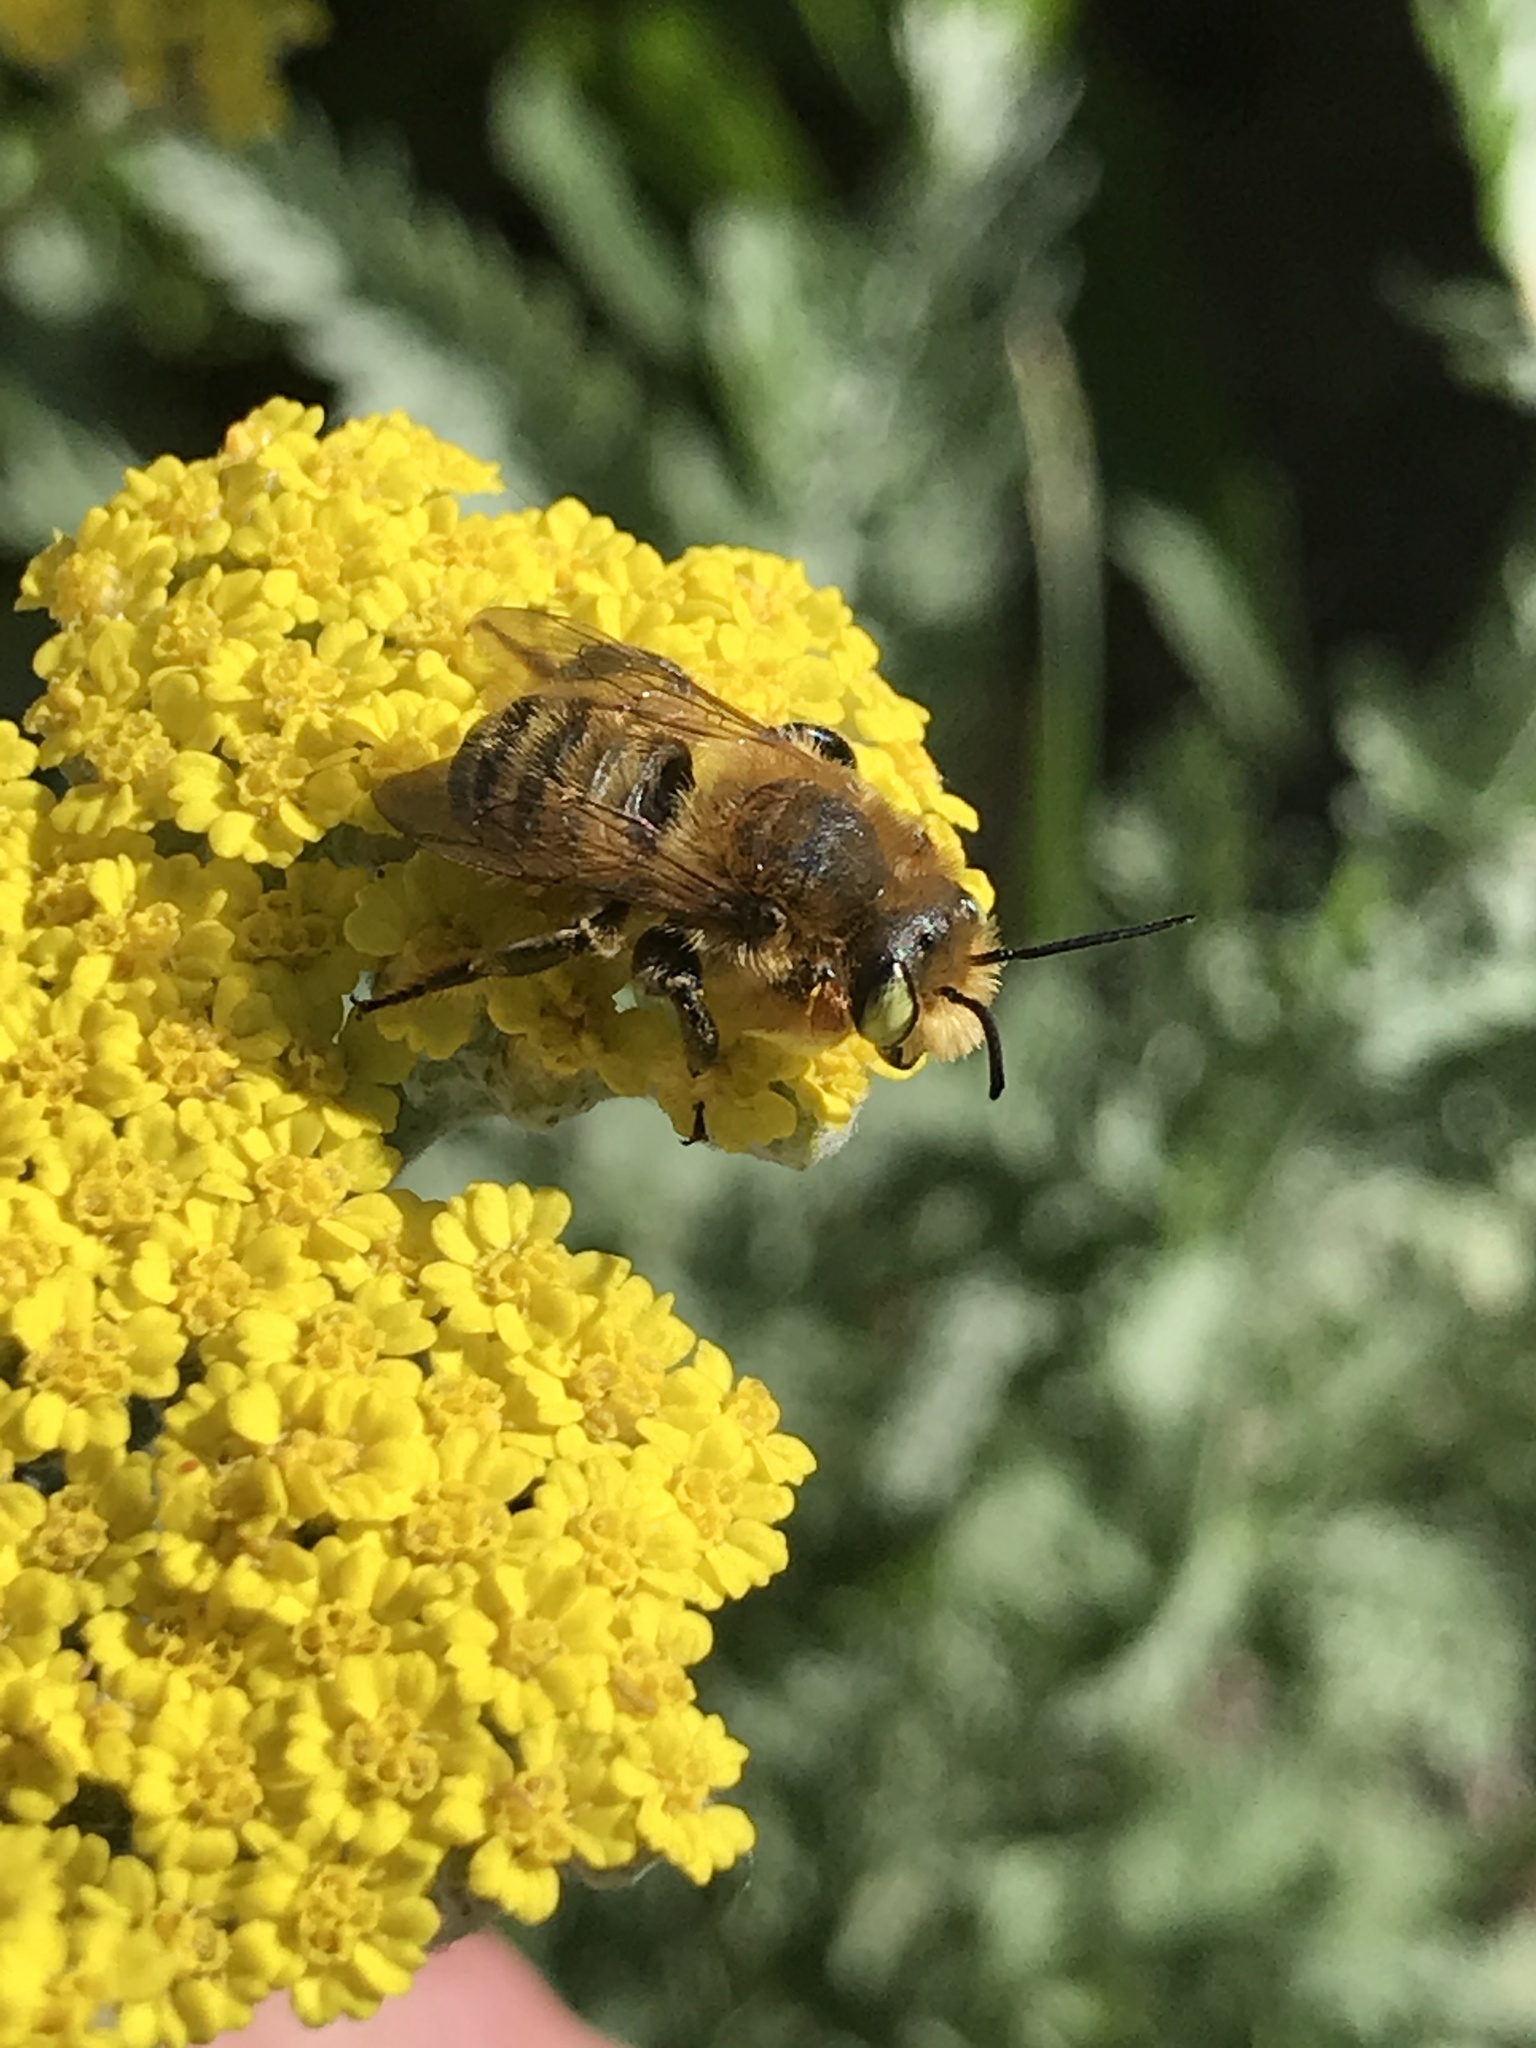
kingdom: Animalia
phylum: Arthropoda
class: Insecta
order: Hymenoptera
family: Megachilidae
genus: Megachile
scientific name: Megachile latimanus
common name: Leafcutting bee
